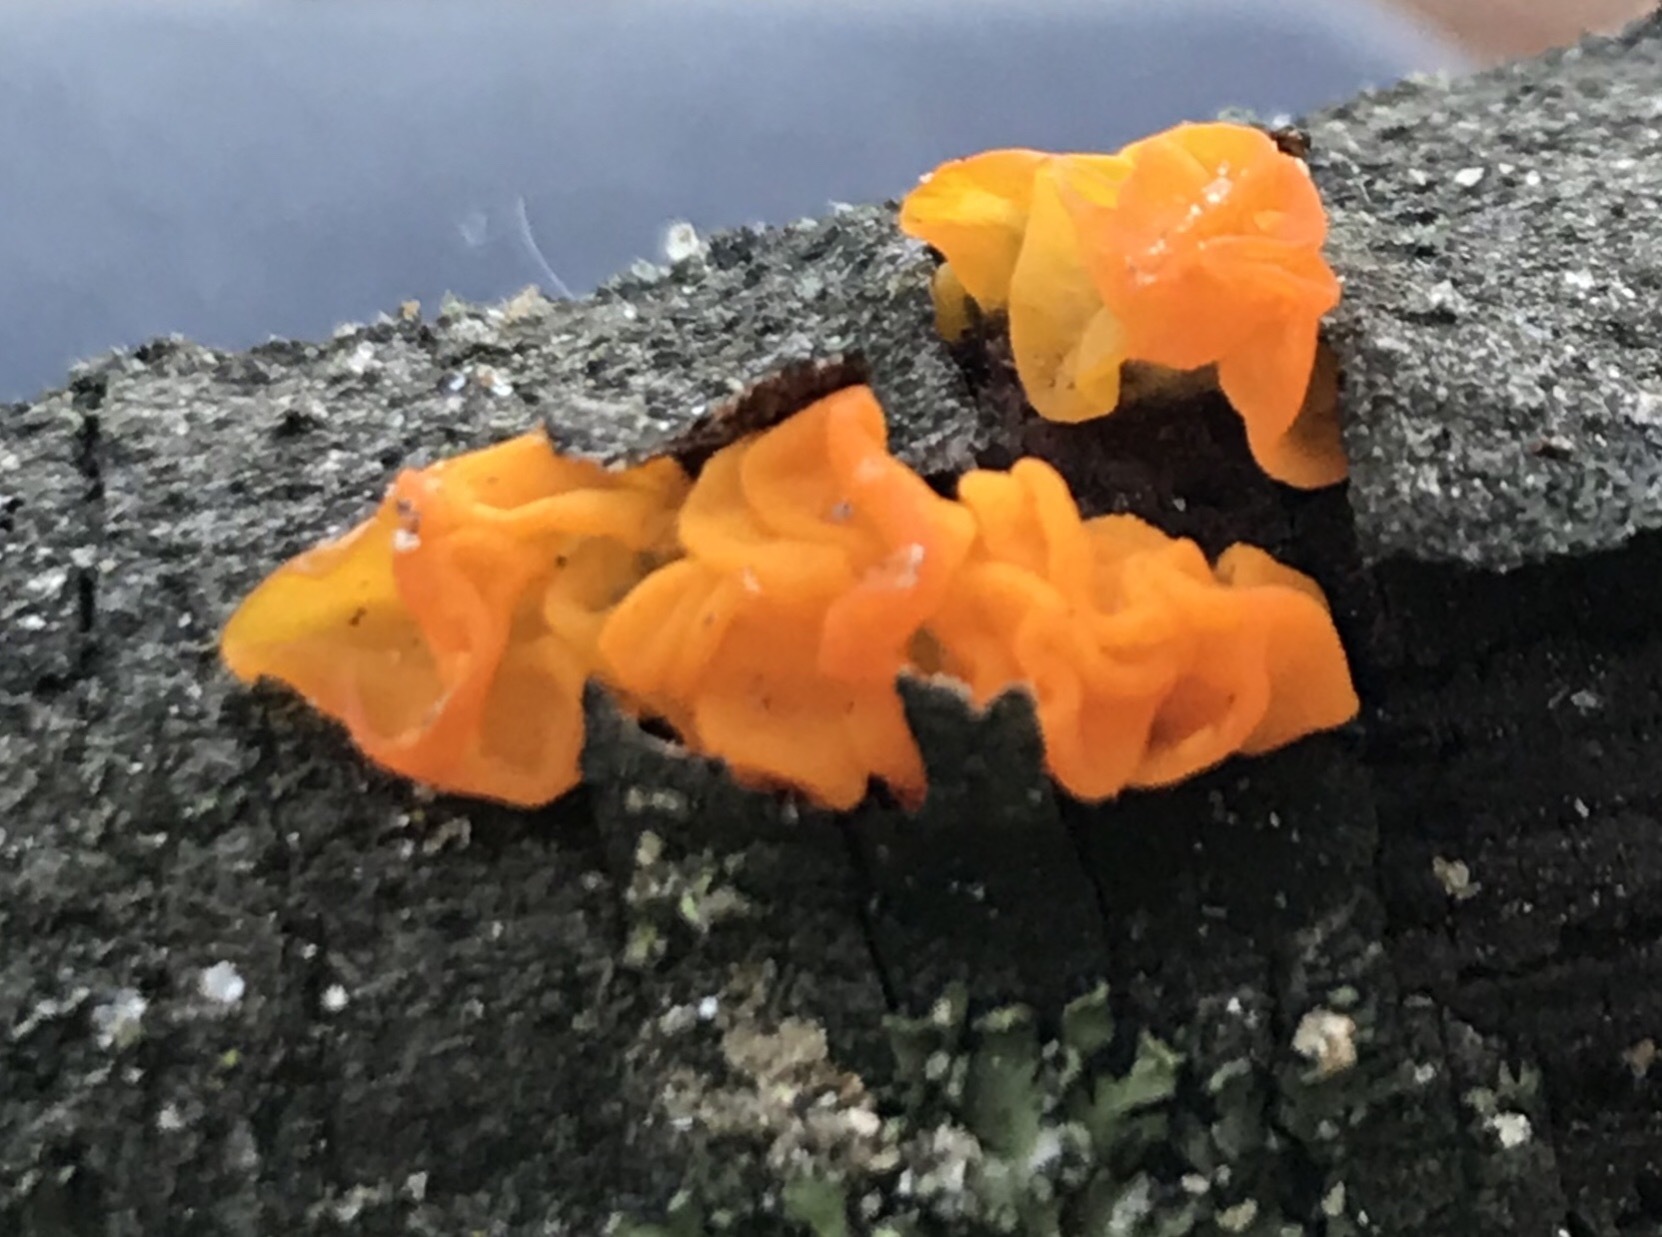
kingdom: Fungi
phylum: Basidiomycota
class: Tremellomycetes
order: Tremellales
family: Tremellaceae
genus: Tremella
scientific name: Tremella mesenterica
